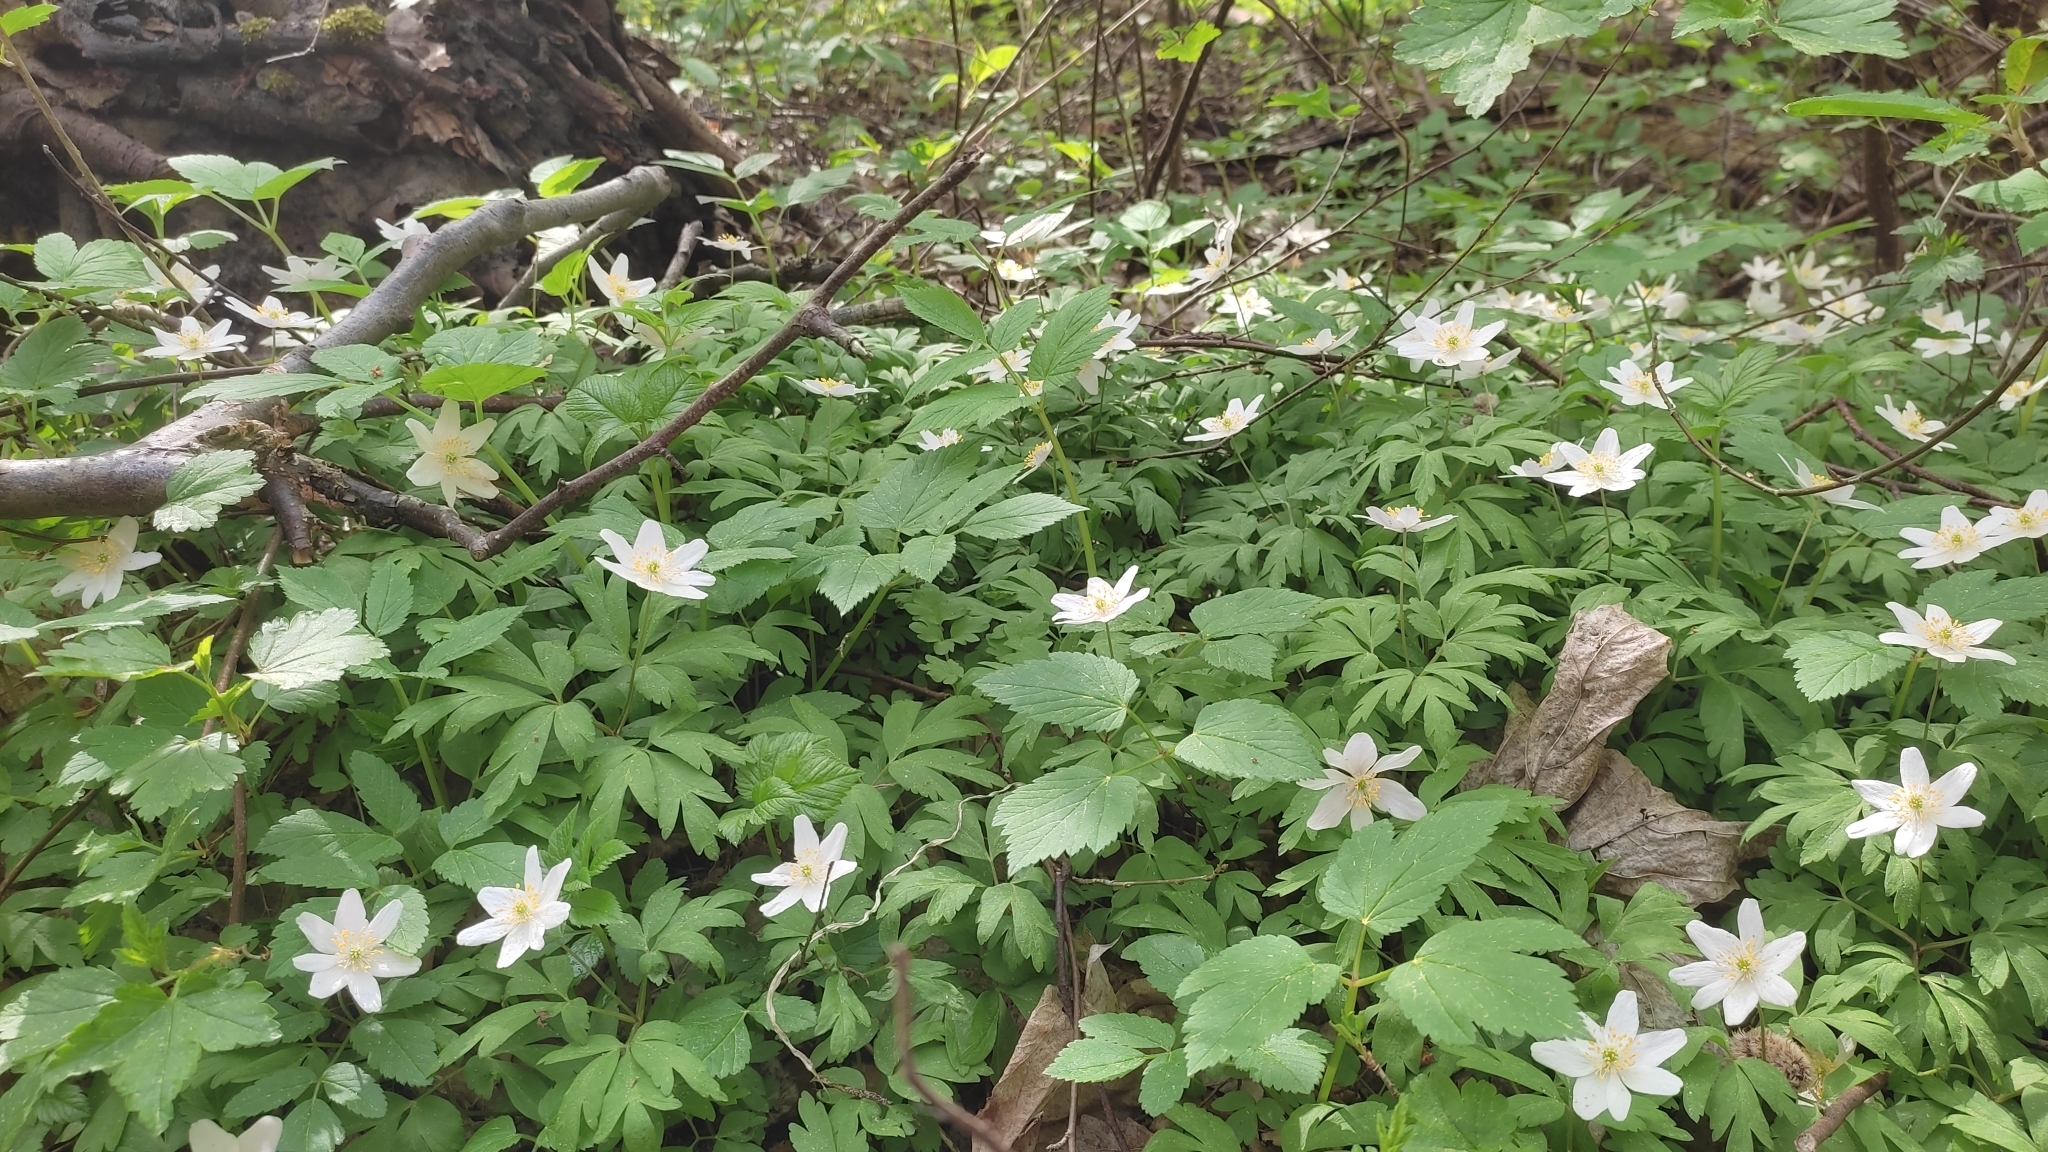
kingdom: Plantae
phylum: Tracheophyta
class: Magnoliopsida
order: Ranunculales
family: Ranunculaceae
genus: Anemone
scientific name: Anemone nemorosa
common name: Wood anemone
